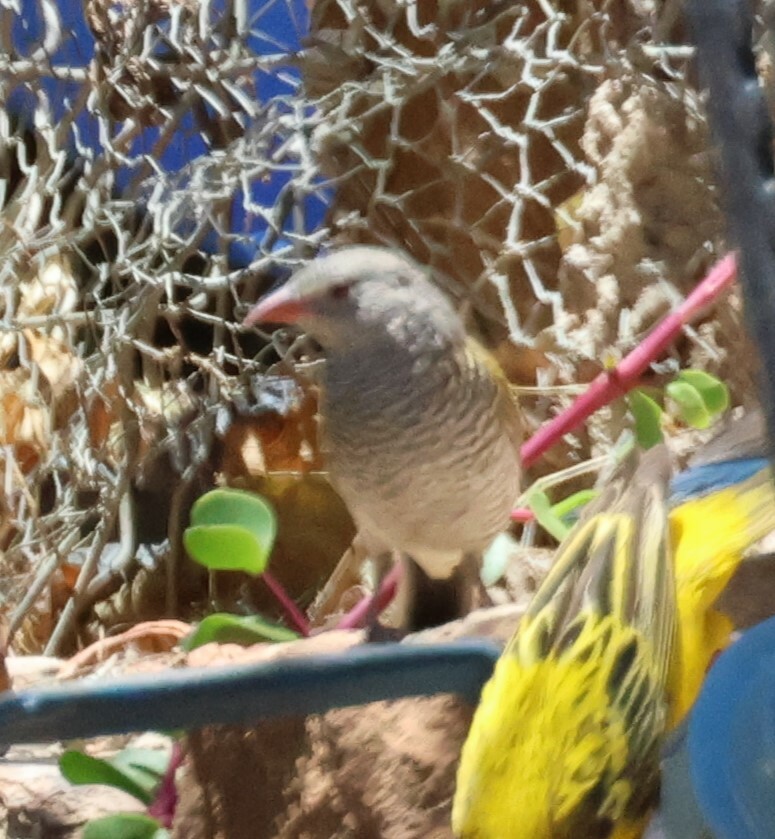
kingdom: Animalia
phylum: Chordata
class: Aves
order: Passeriformes
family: Estrildidae
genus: Pytilia
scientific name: Pytilia melba
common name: Green-winged pytilia
